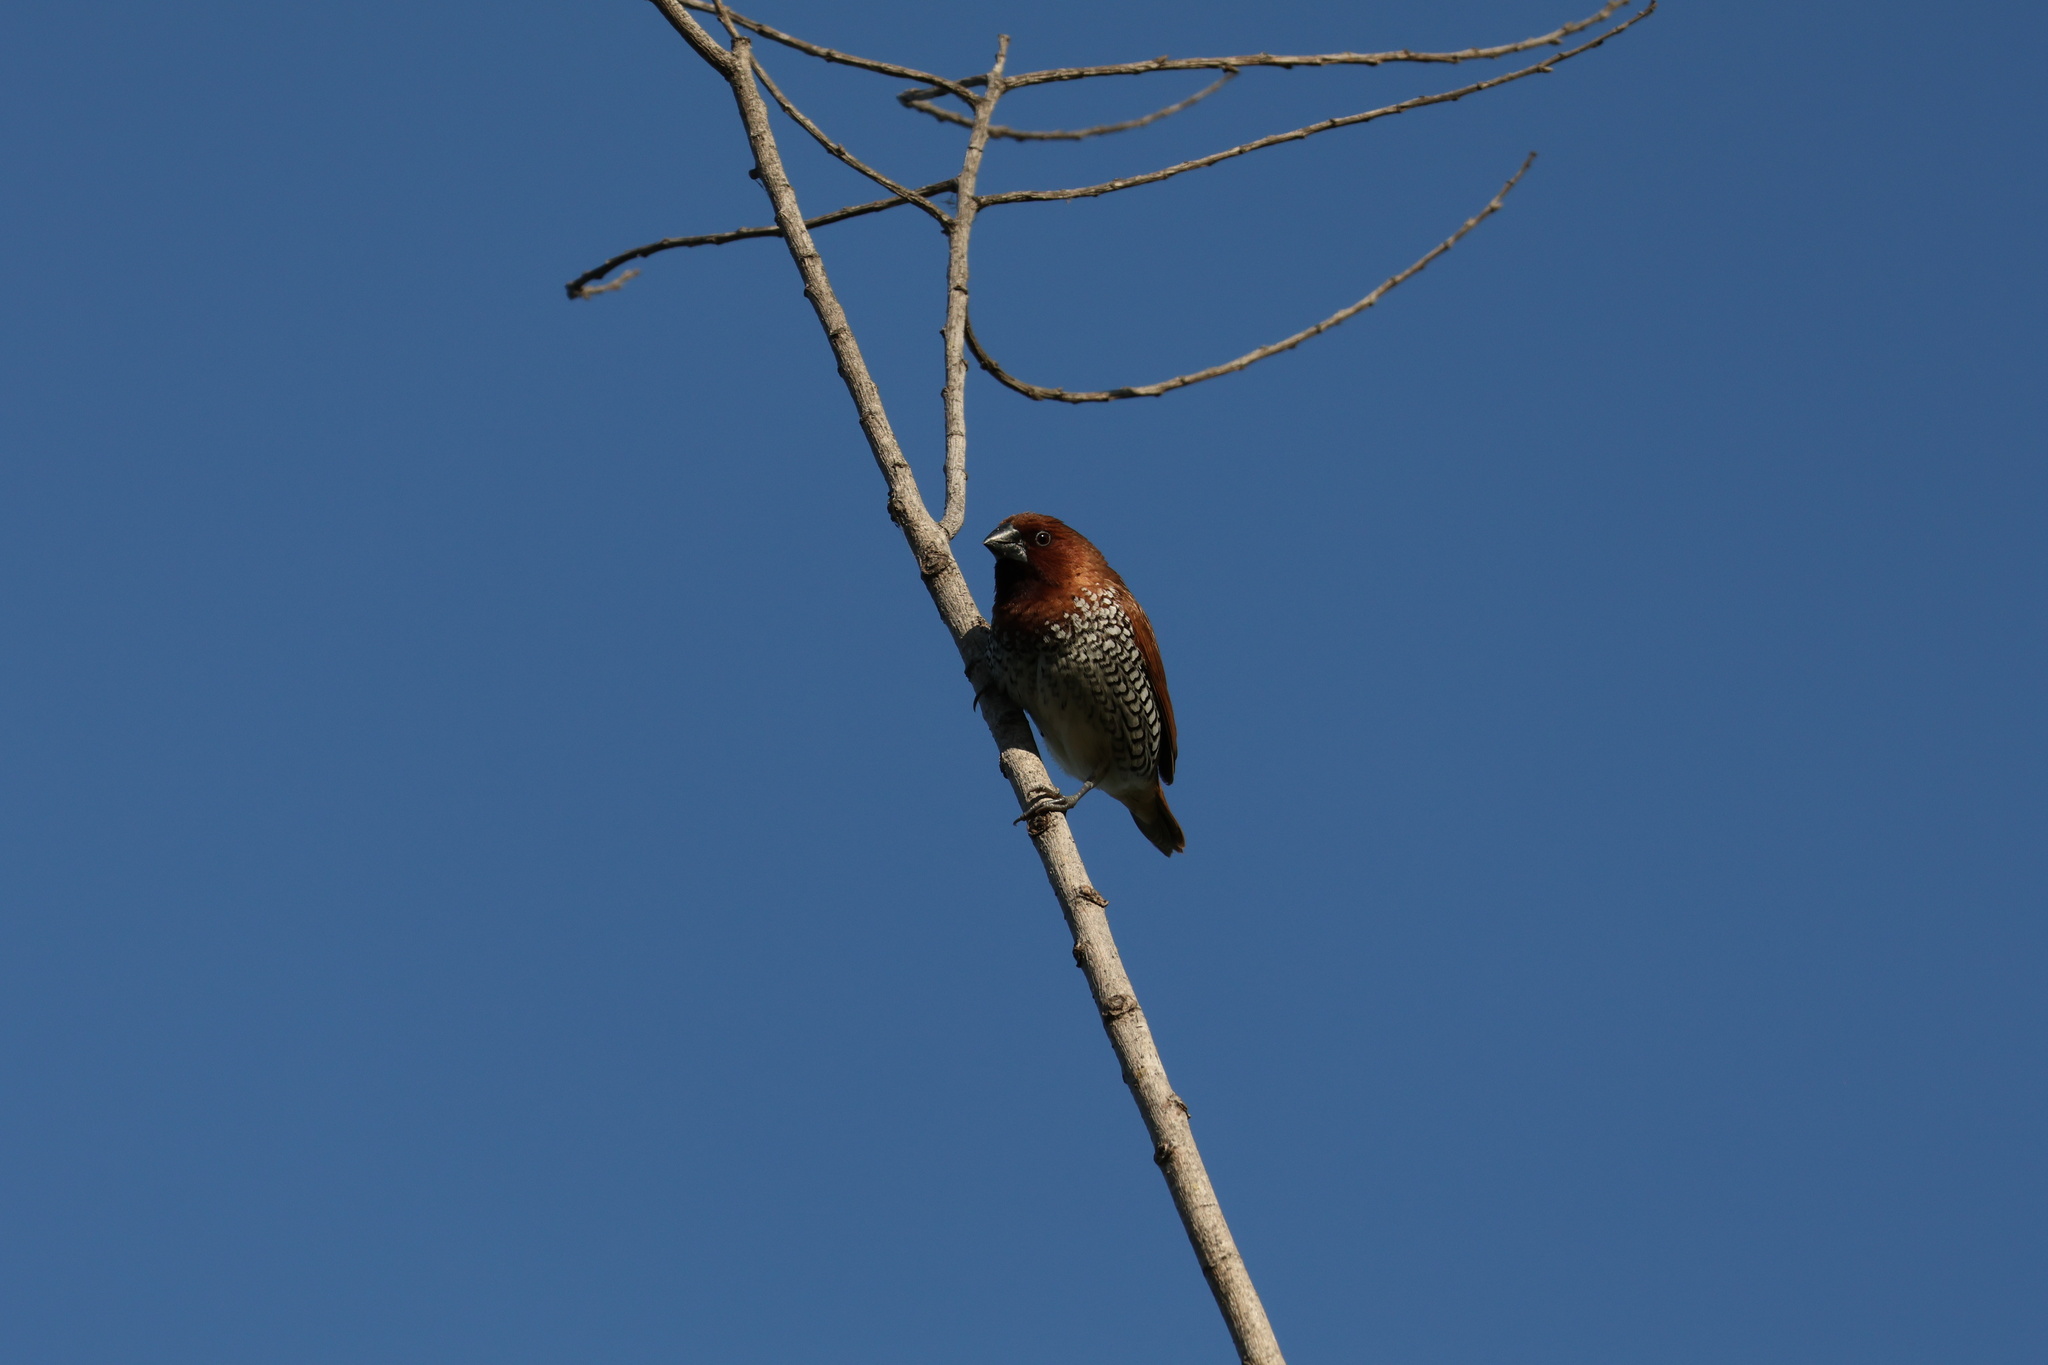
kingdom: Animalia
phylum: Chordata
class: Aves
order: Passeriformes
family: Estrildidae
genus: Lonchura
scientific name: Lonchura punctulata
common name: Scaly-breasted munia
